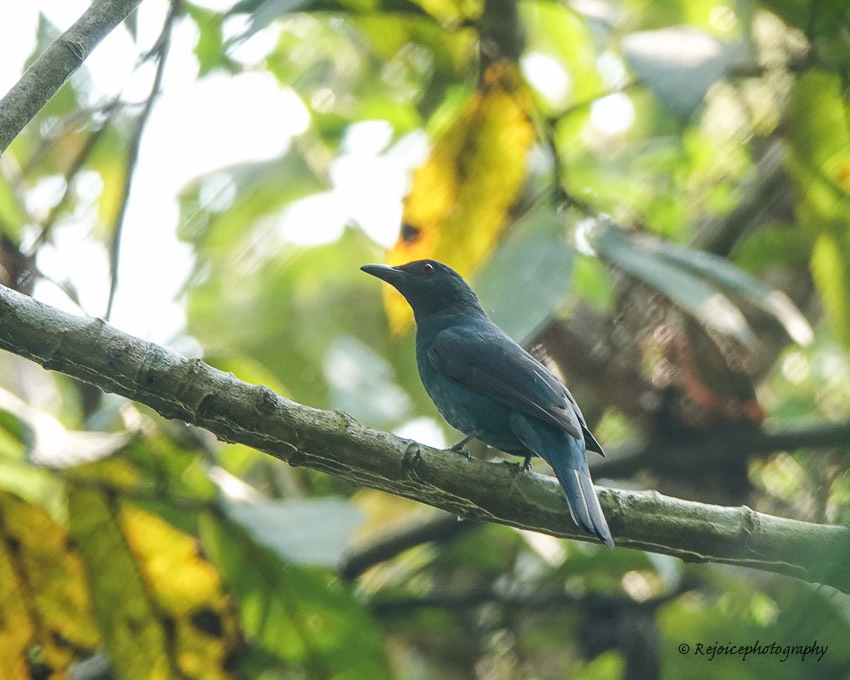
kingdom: Animalia
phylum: Chordata
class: Aves
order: Passeriformes
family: Irenidae
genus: Irena
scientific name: Irena puella
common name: Asian fairy-bluebird
